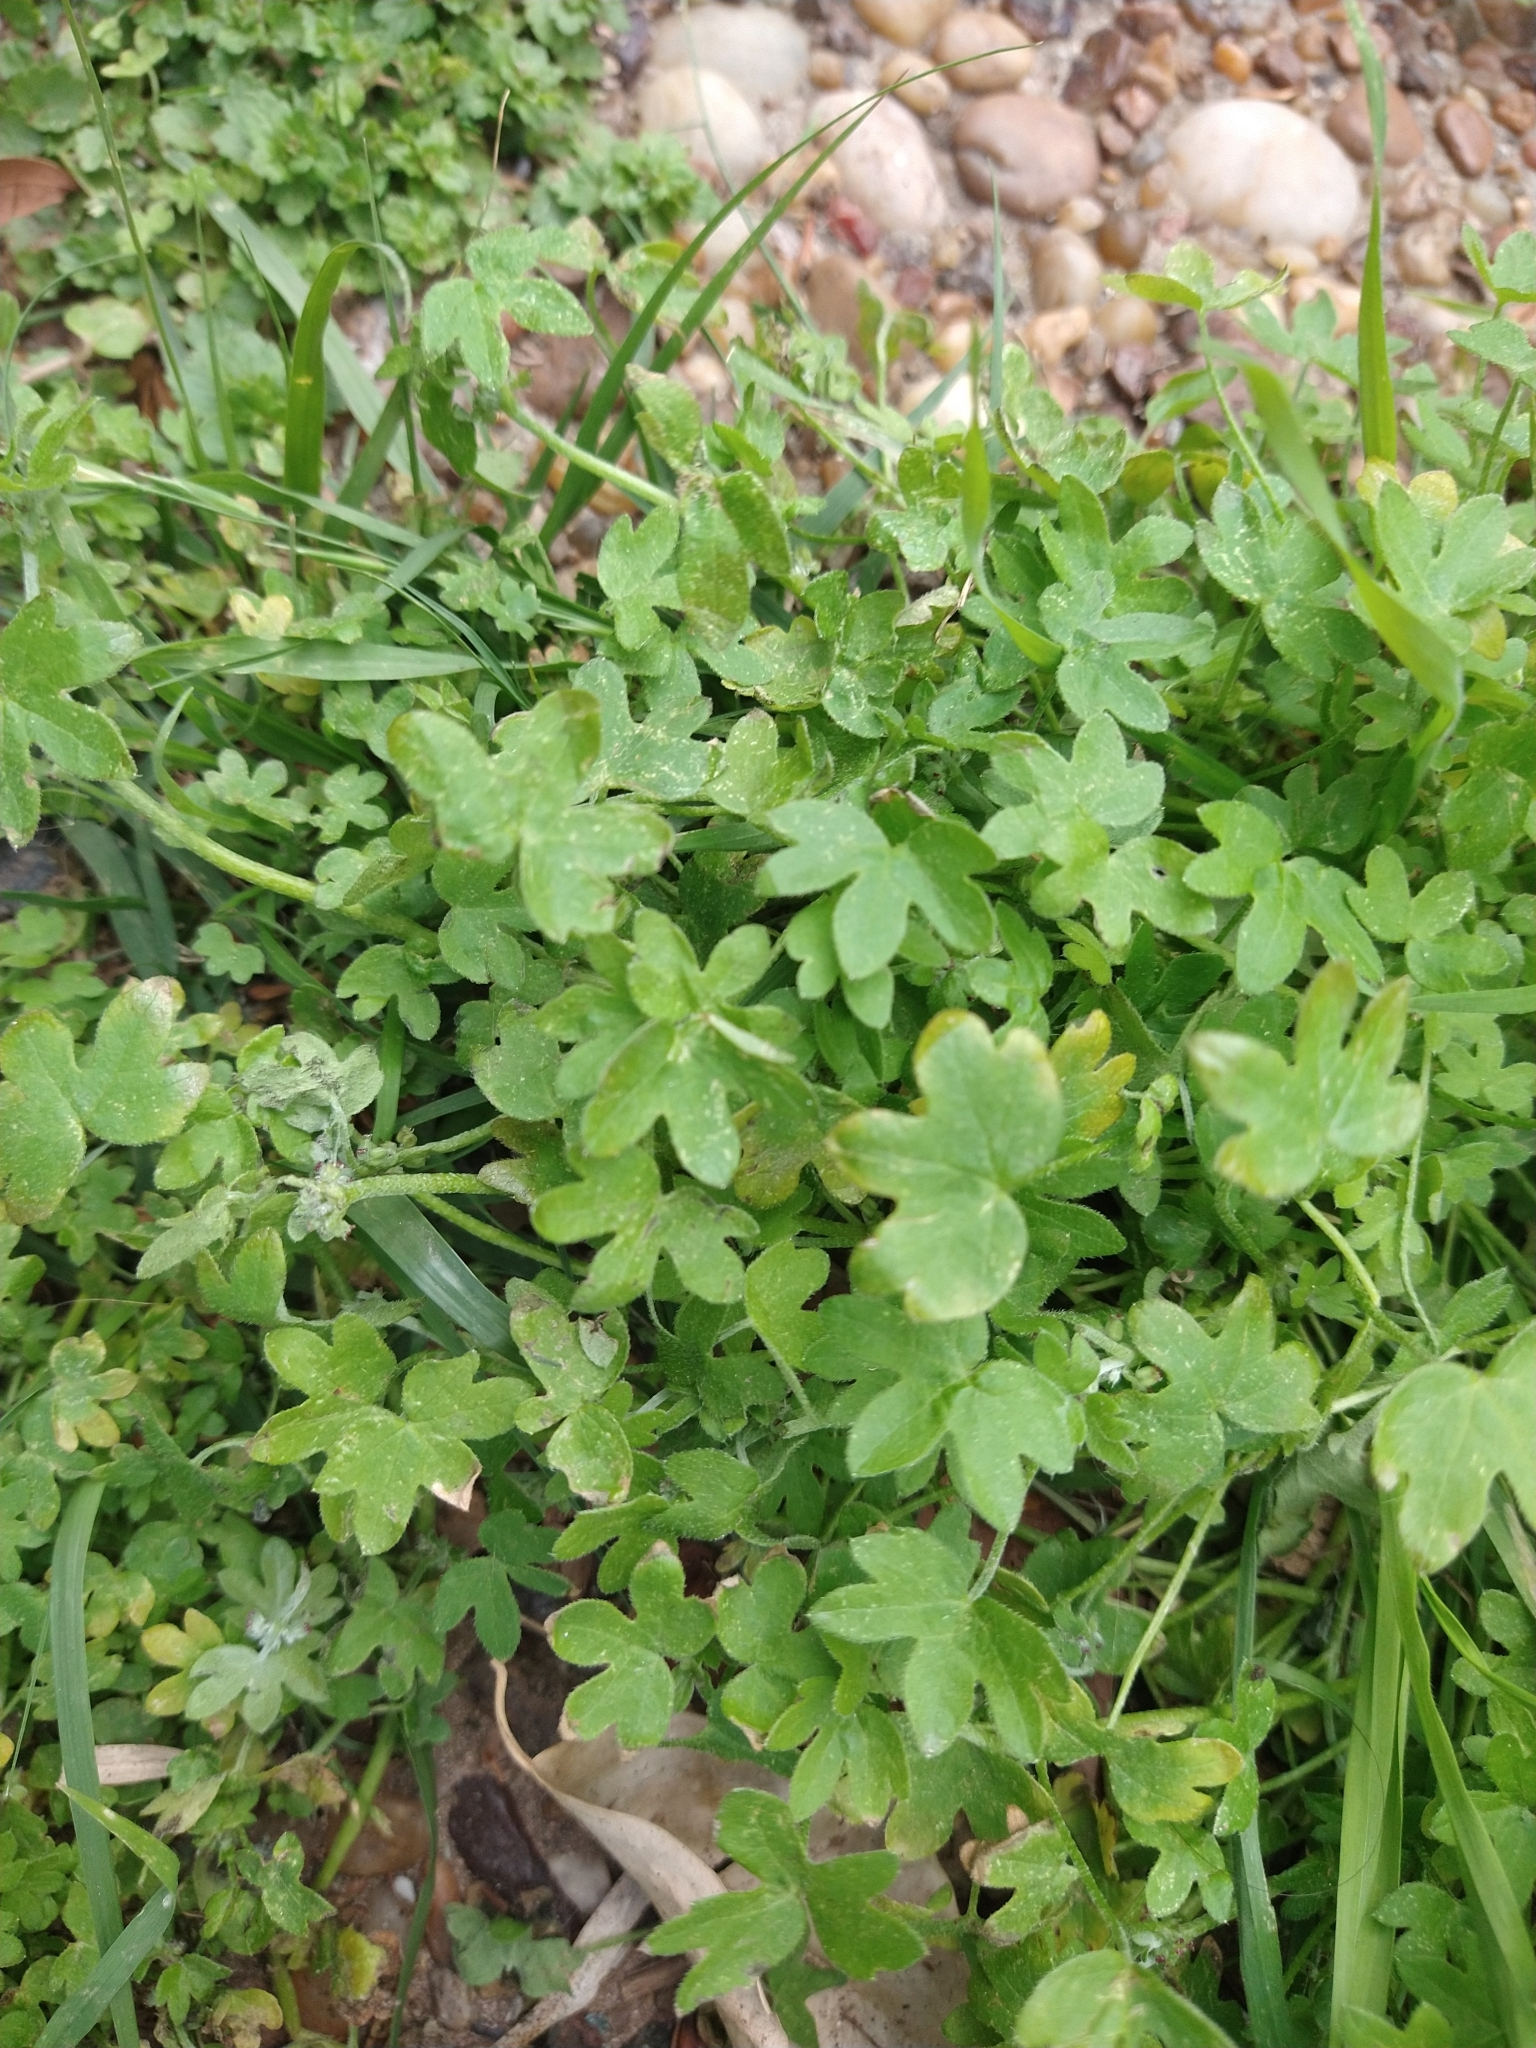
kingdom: Plantae
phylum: Tracheophyta
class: Magnoliopsida
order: Apiales
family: Apiaceae
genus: Bowlesia
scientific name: Bowlesia incana
